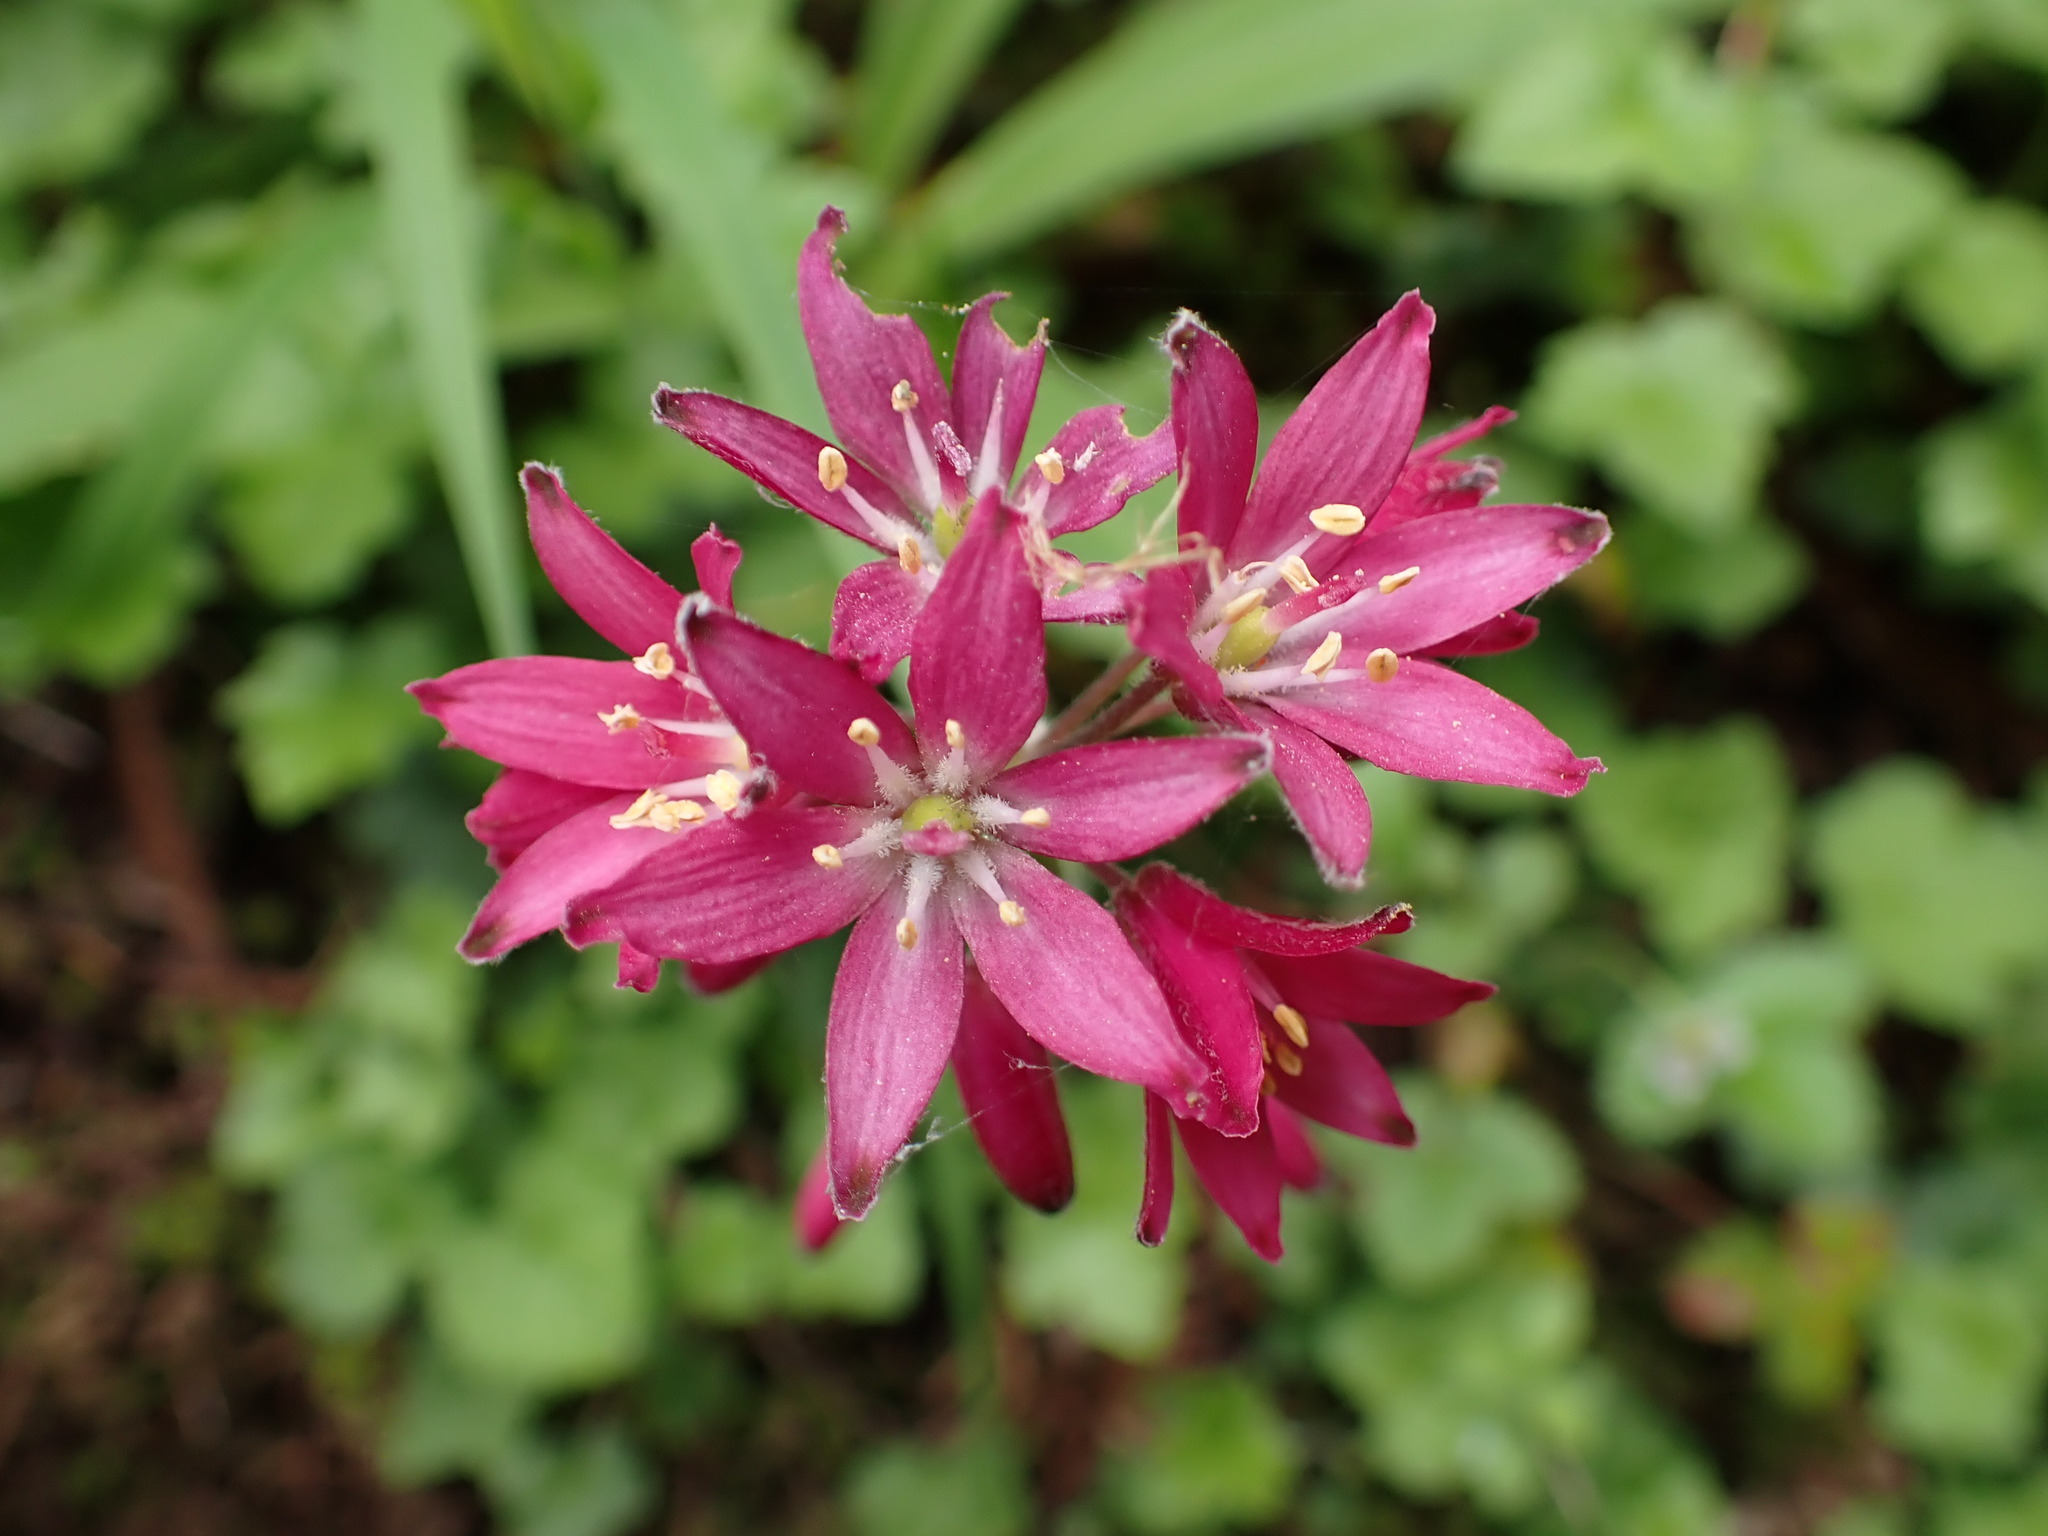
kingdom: Plantae
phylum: Tracheophyta
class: Liliopsida
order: Liliales
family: Liliaceae
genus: Clintonia
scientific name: Clintonia andrewsiana
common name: Red clintonia
